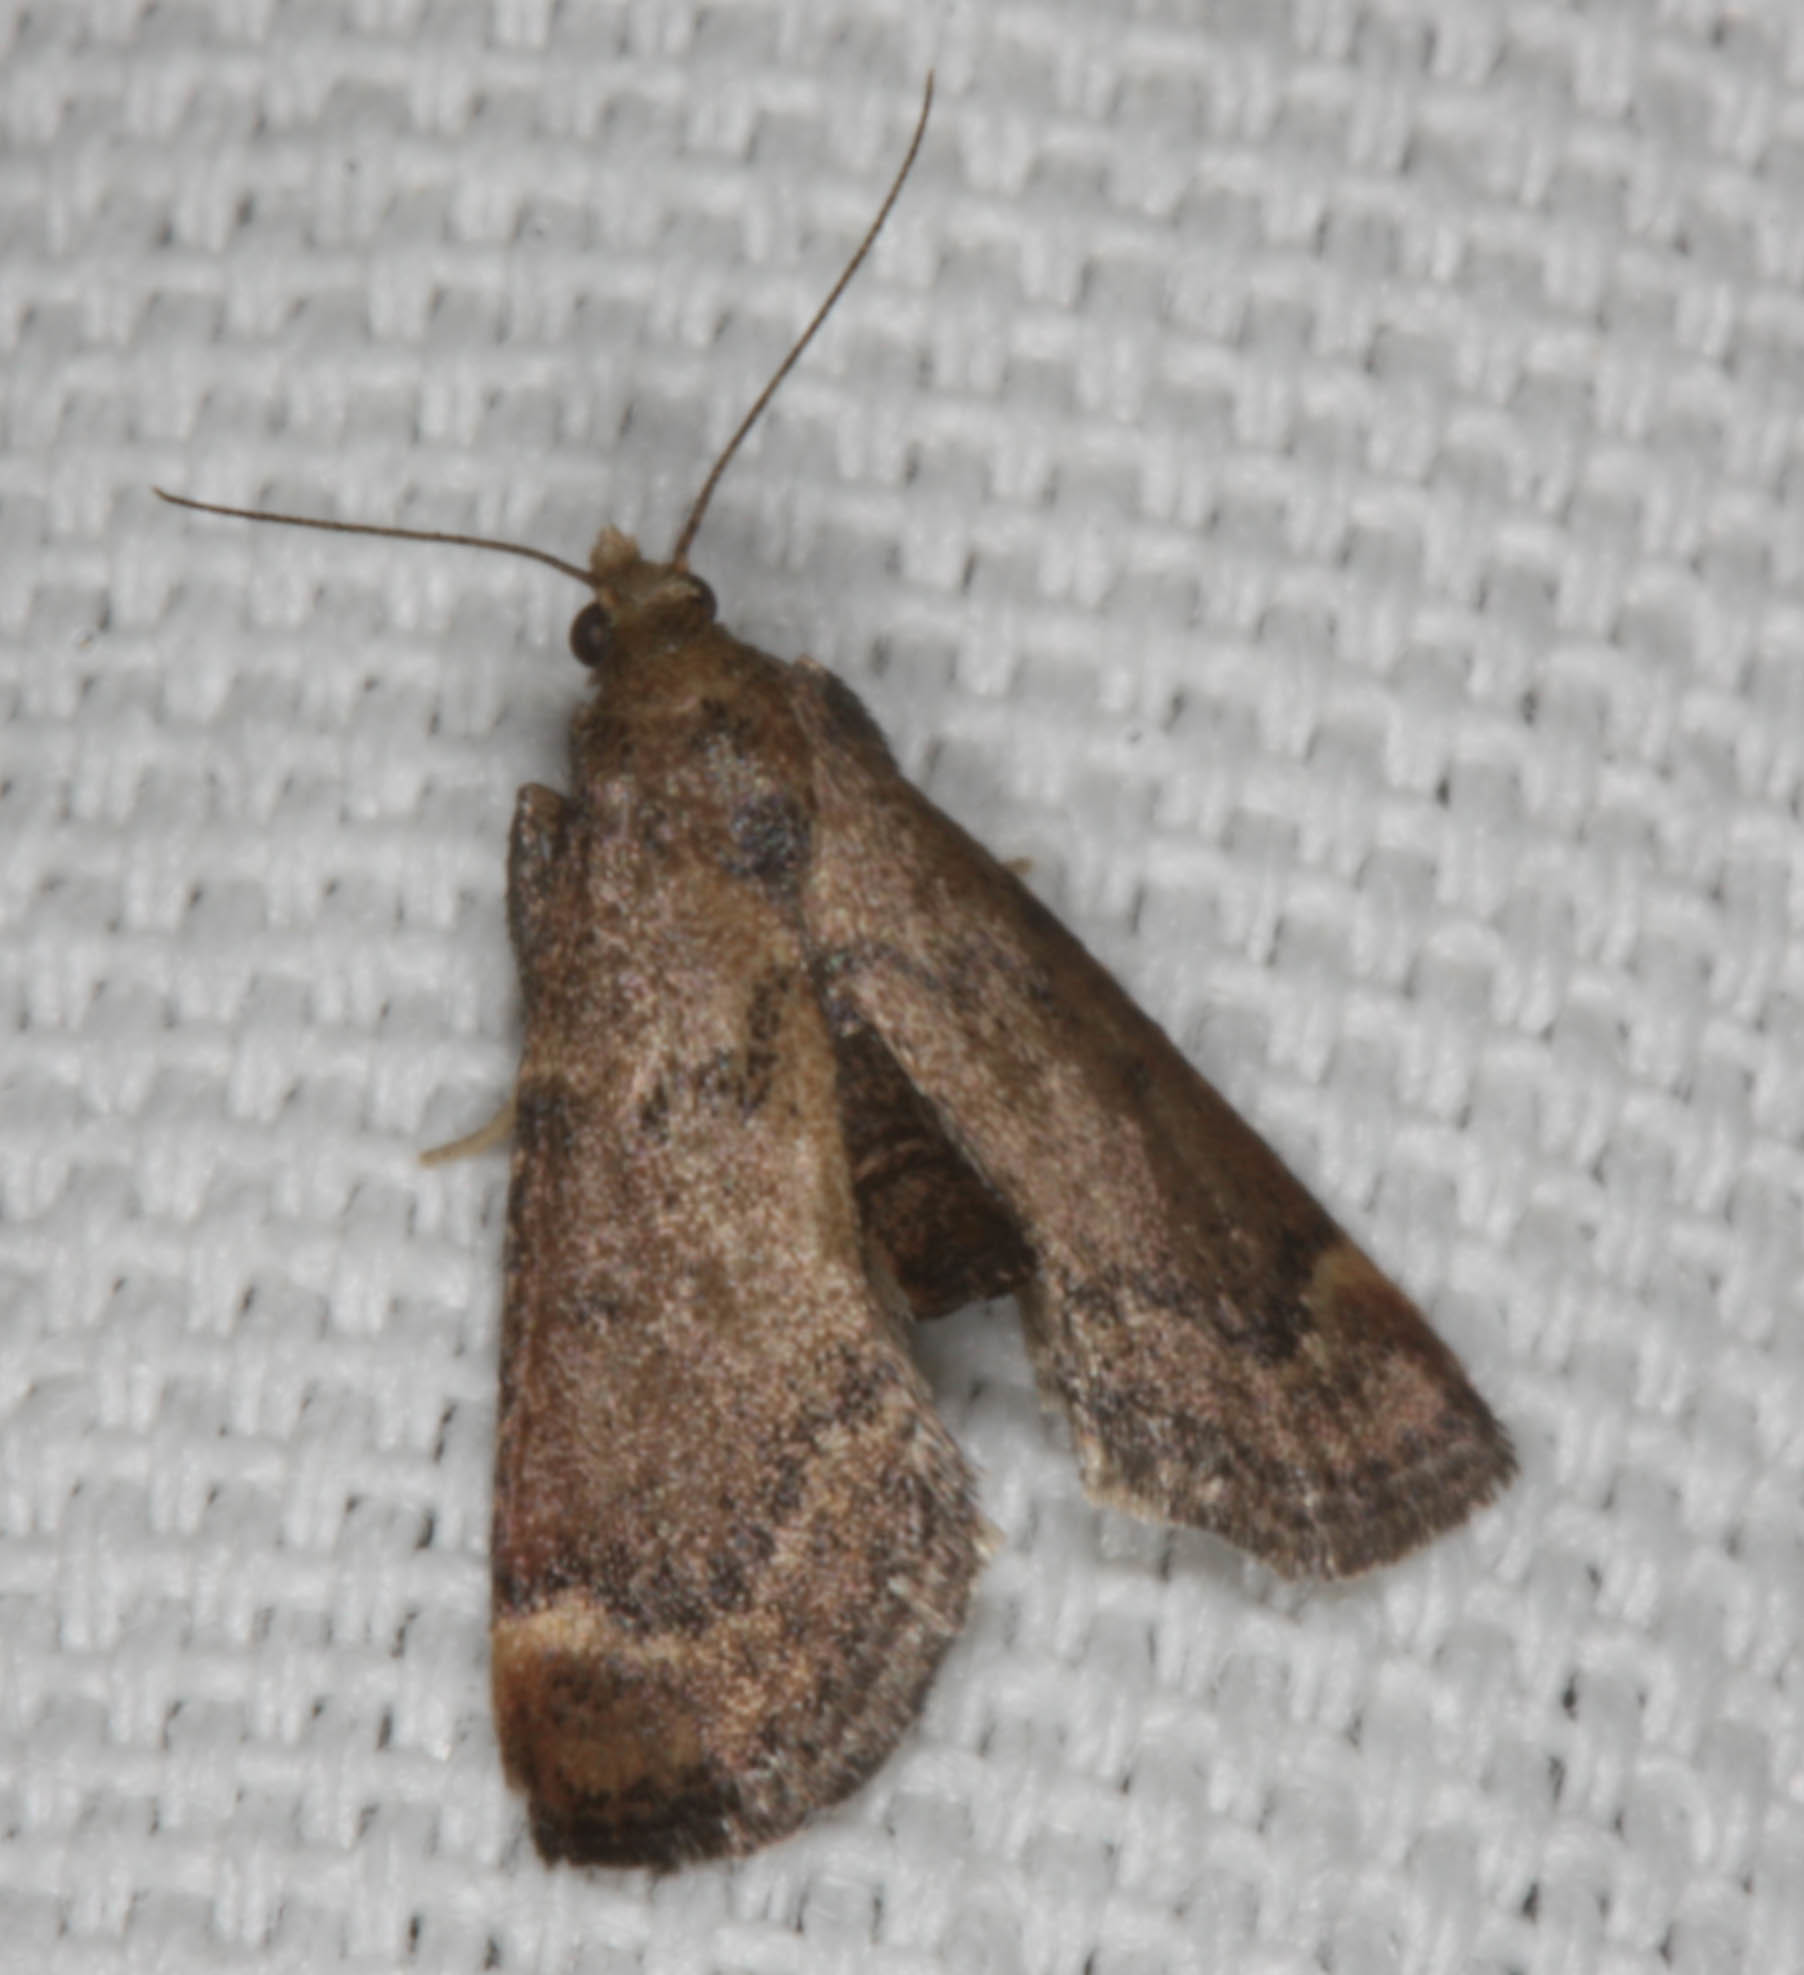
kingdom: Animalia
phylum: Arthropoda
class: Insecta
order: Lepidoptera
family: Pyralidae
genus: Hypsopygia
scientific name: Hypsopygia phoezalis
